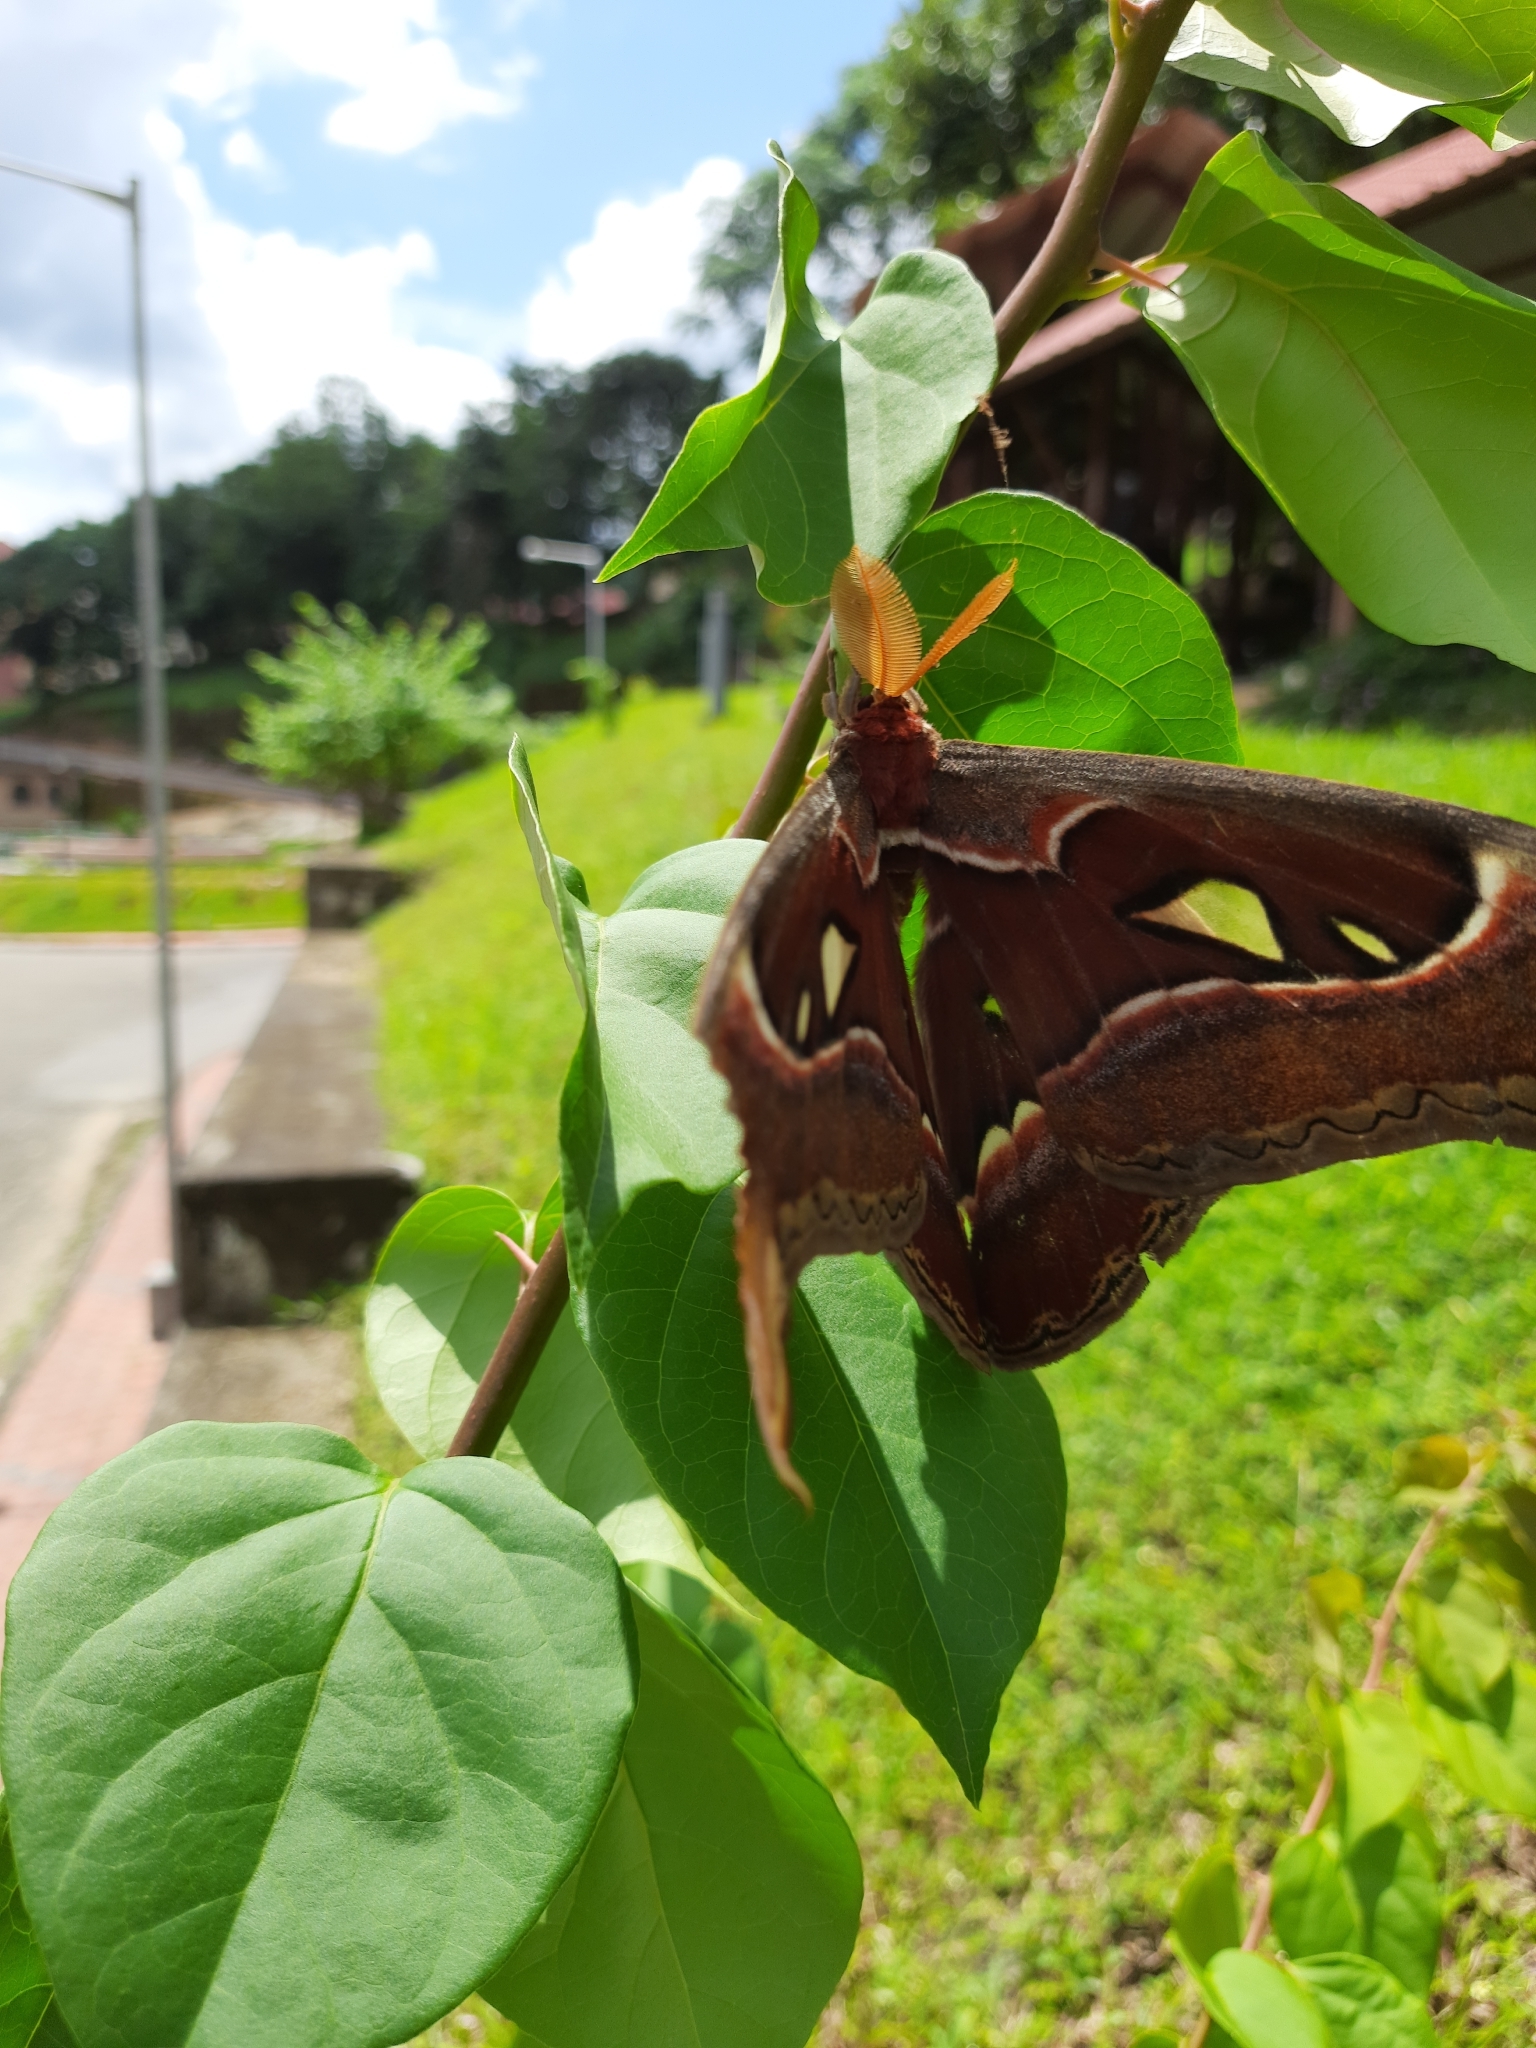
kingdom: Animalia
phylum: Arthropoda
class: Insecta
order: Lepidoptera
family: Saturniidae
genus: Attacus
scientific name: Attacus taprobanis
